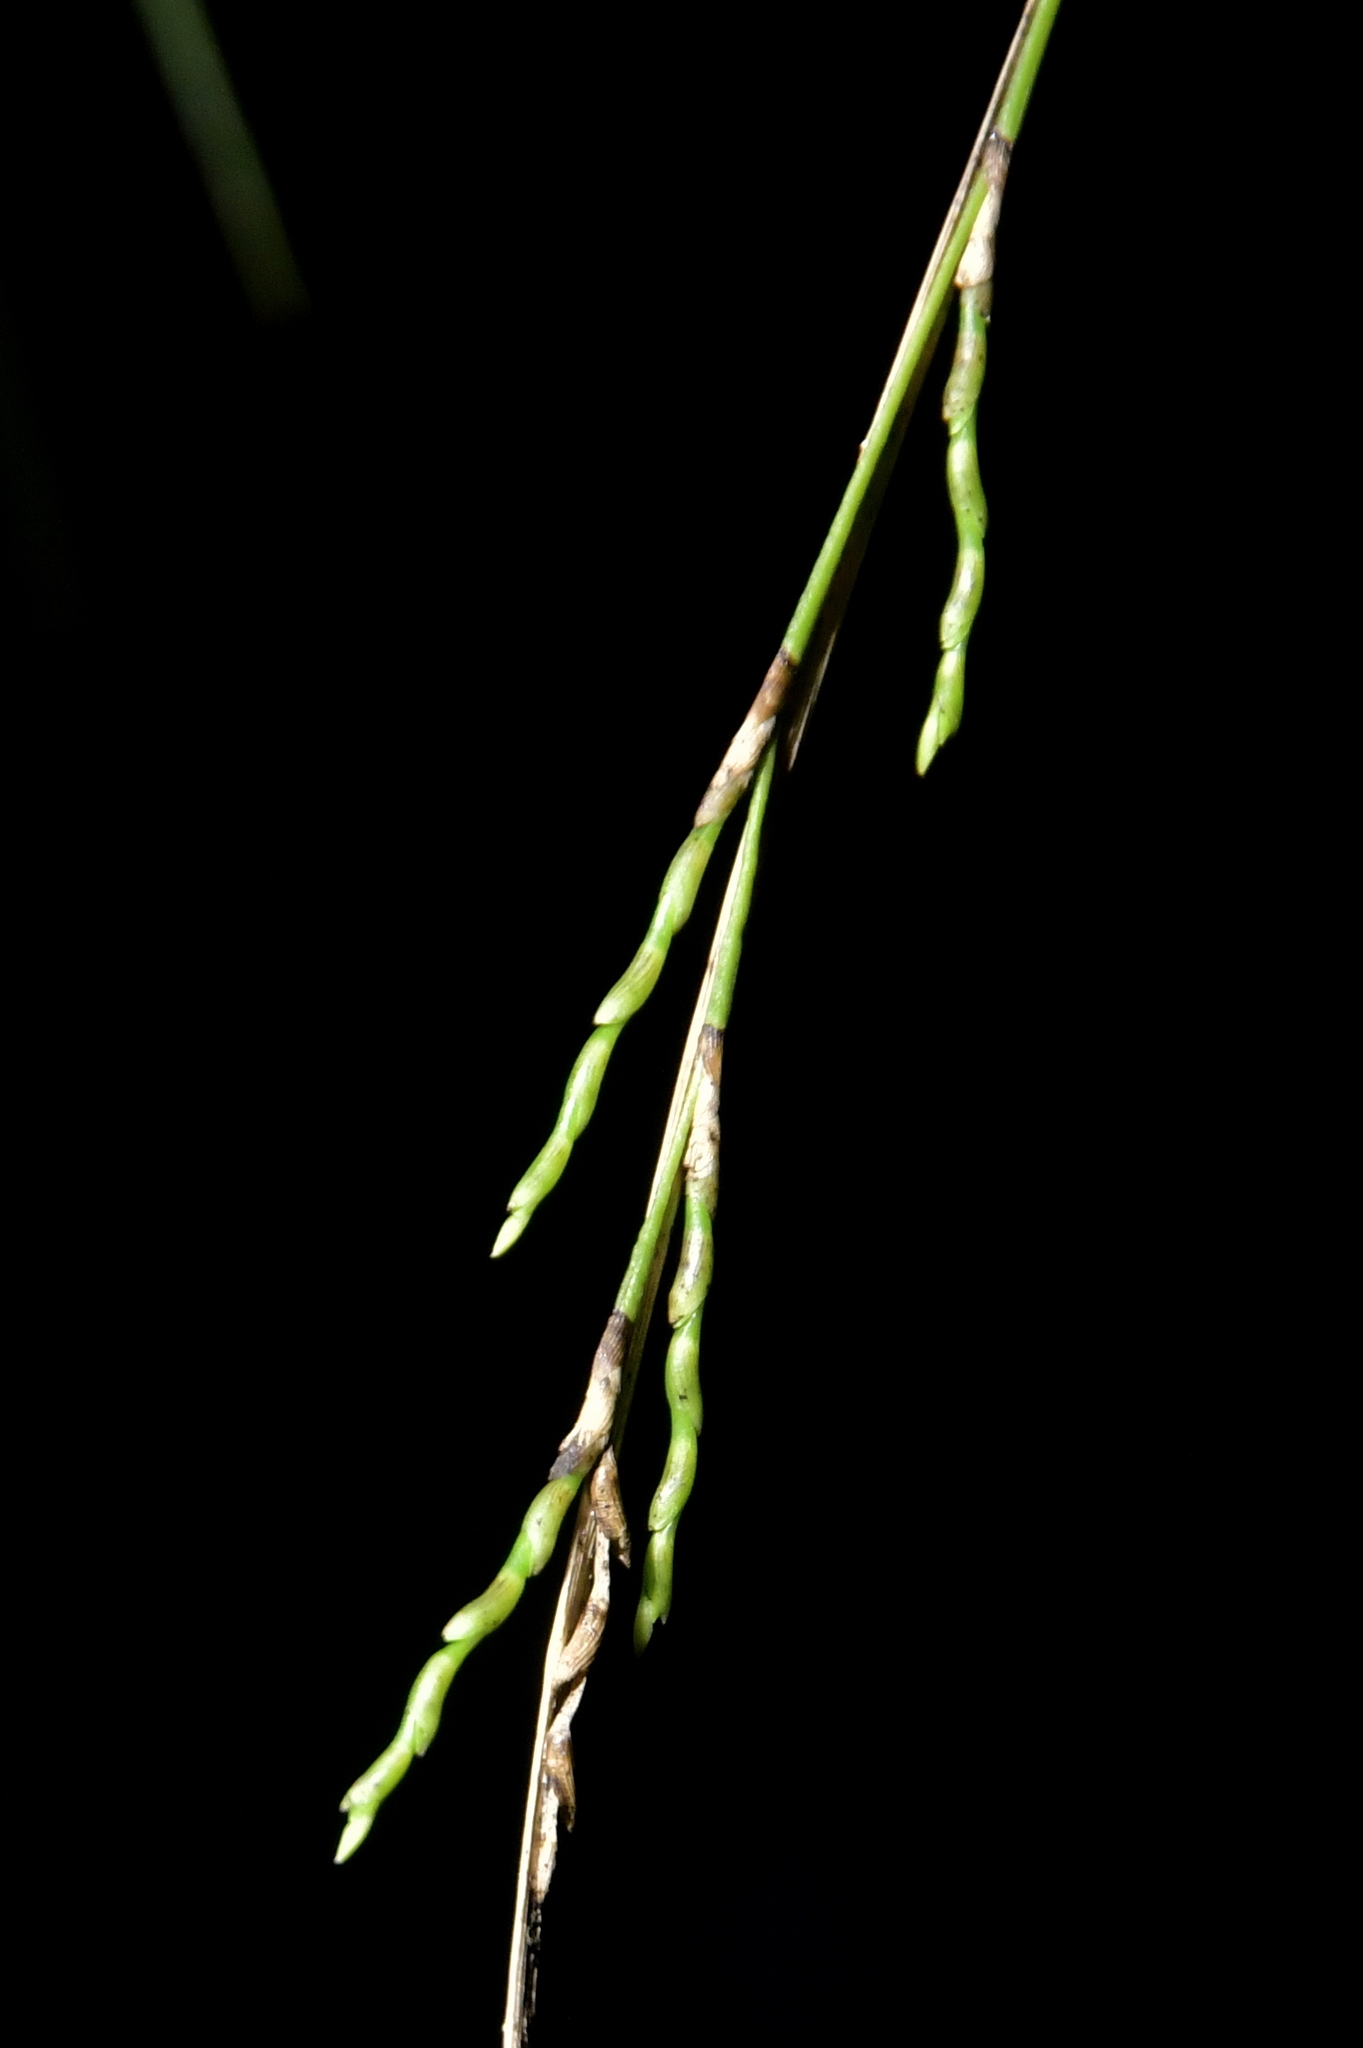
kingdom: Plantae
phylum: Tracheophyta
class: Liliopsida
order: Asparagales
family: Orchidaceae
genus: Earina
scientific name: Earina mucronata
